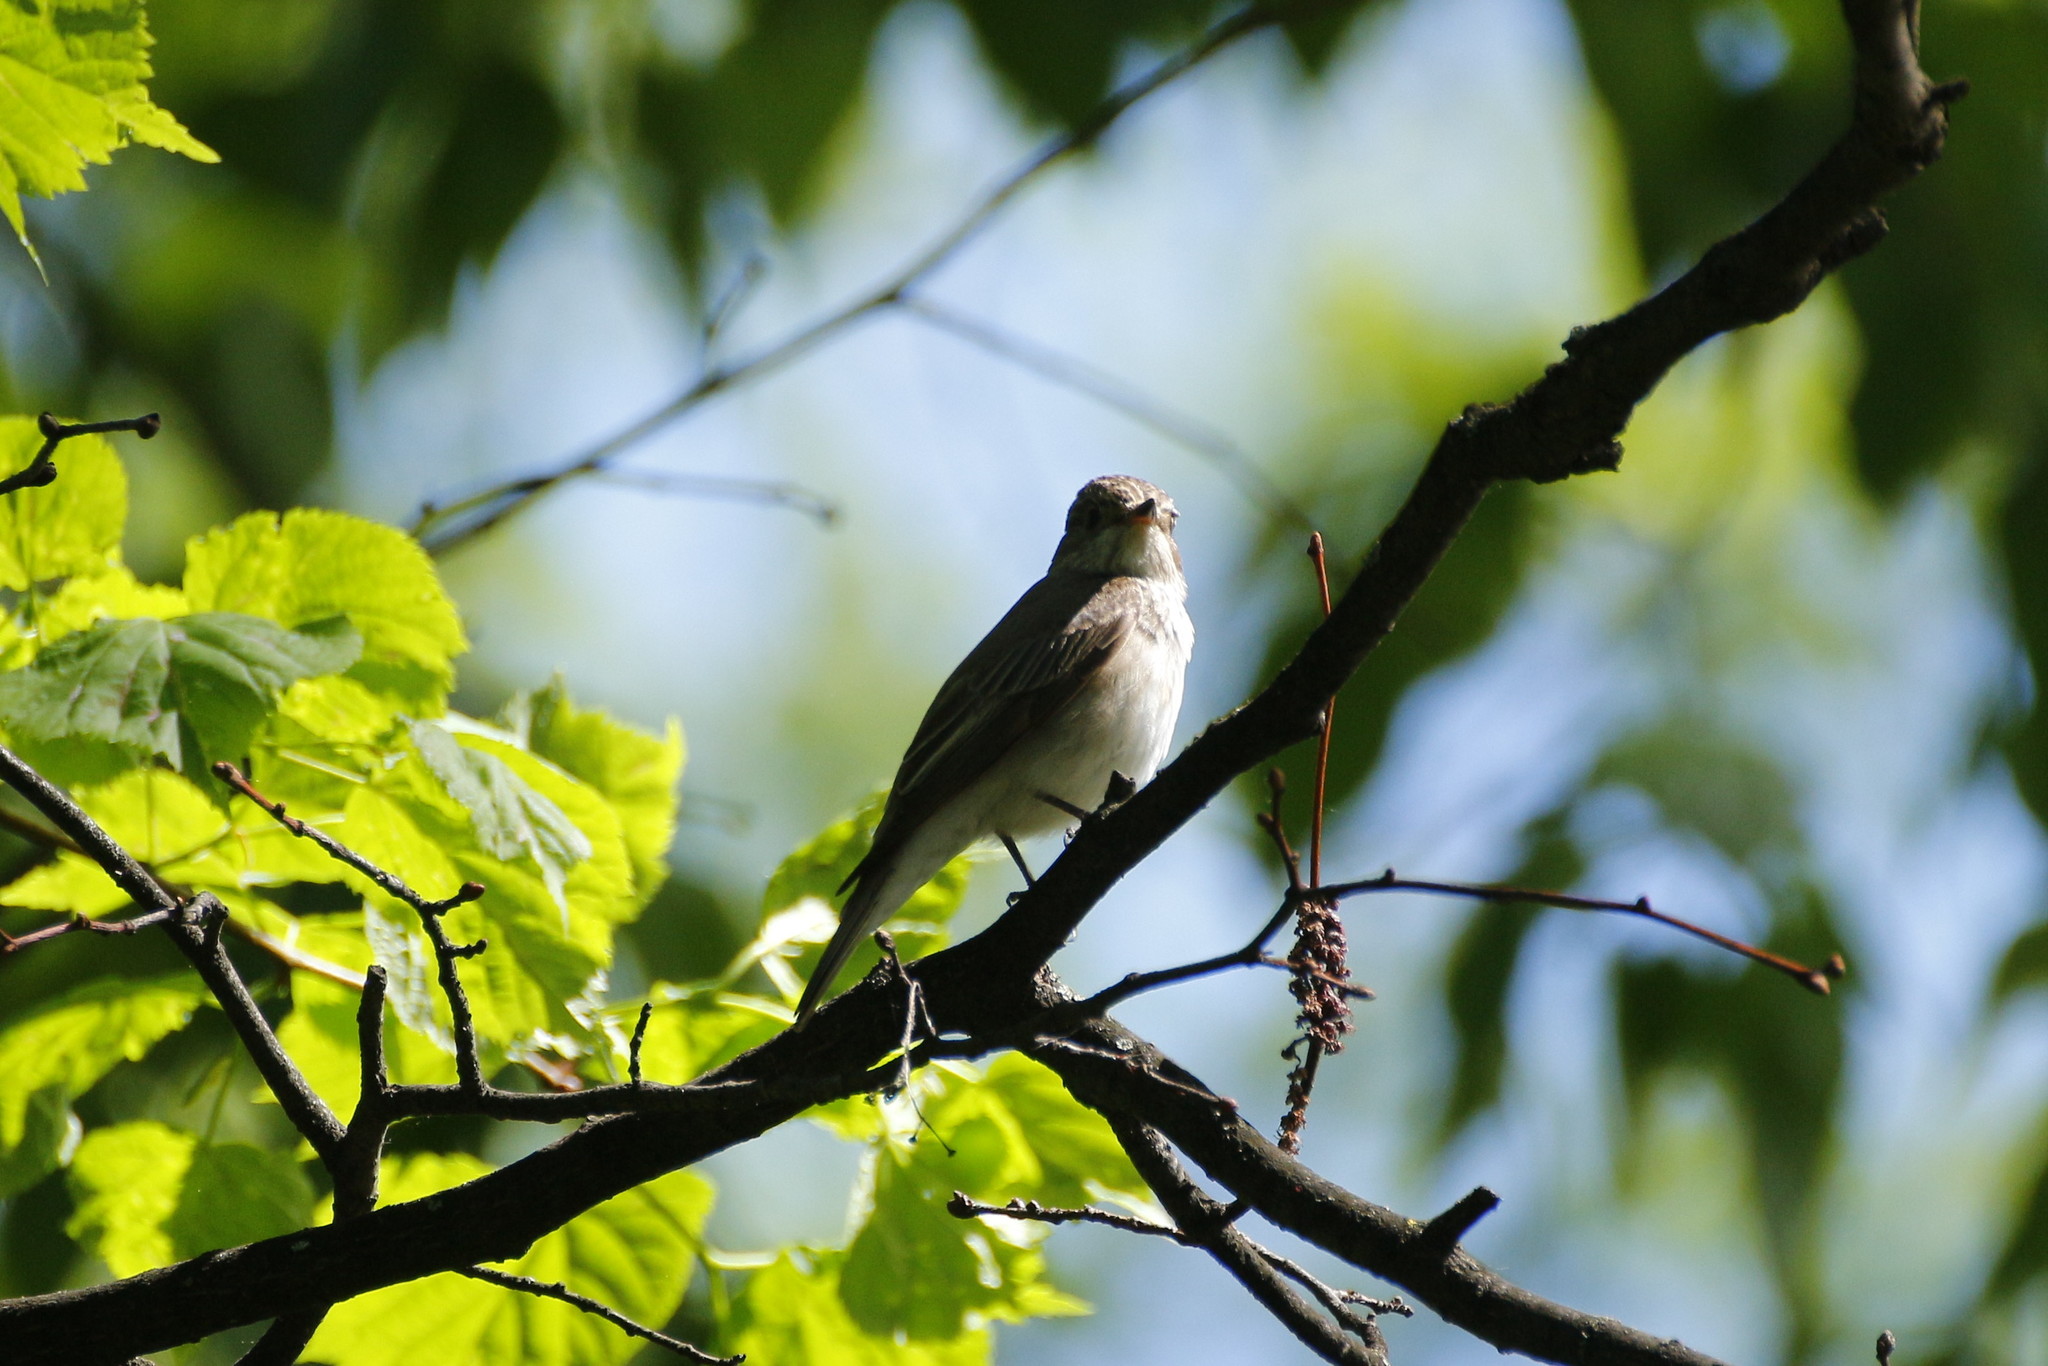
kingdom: Animalia
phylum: Chordata
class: Aves
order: Passeriformes
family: Muscicapidae
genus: Muscicapa
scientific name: Muscicapa striata
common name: Spotted flycatcher
